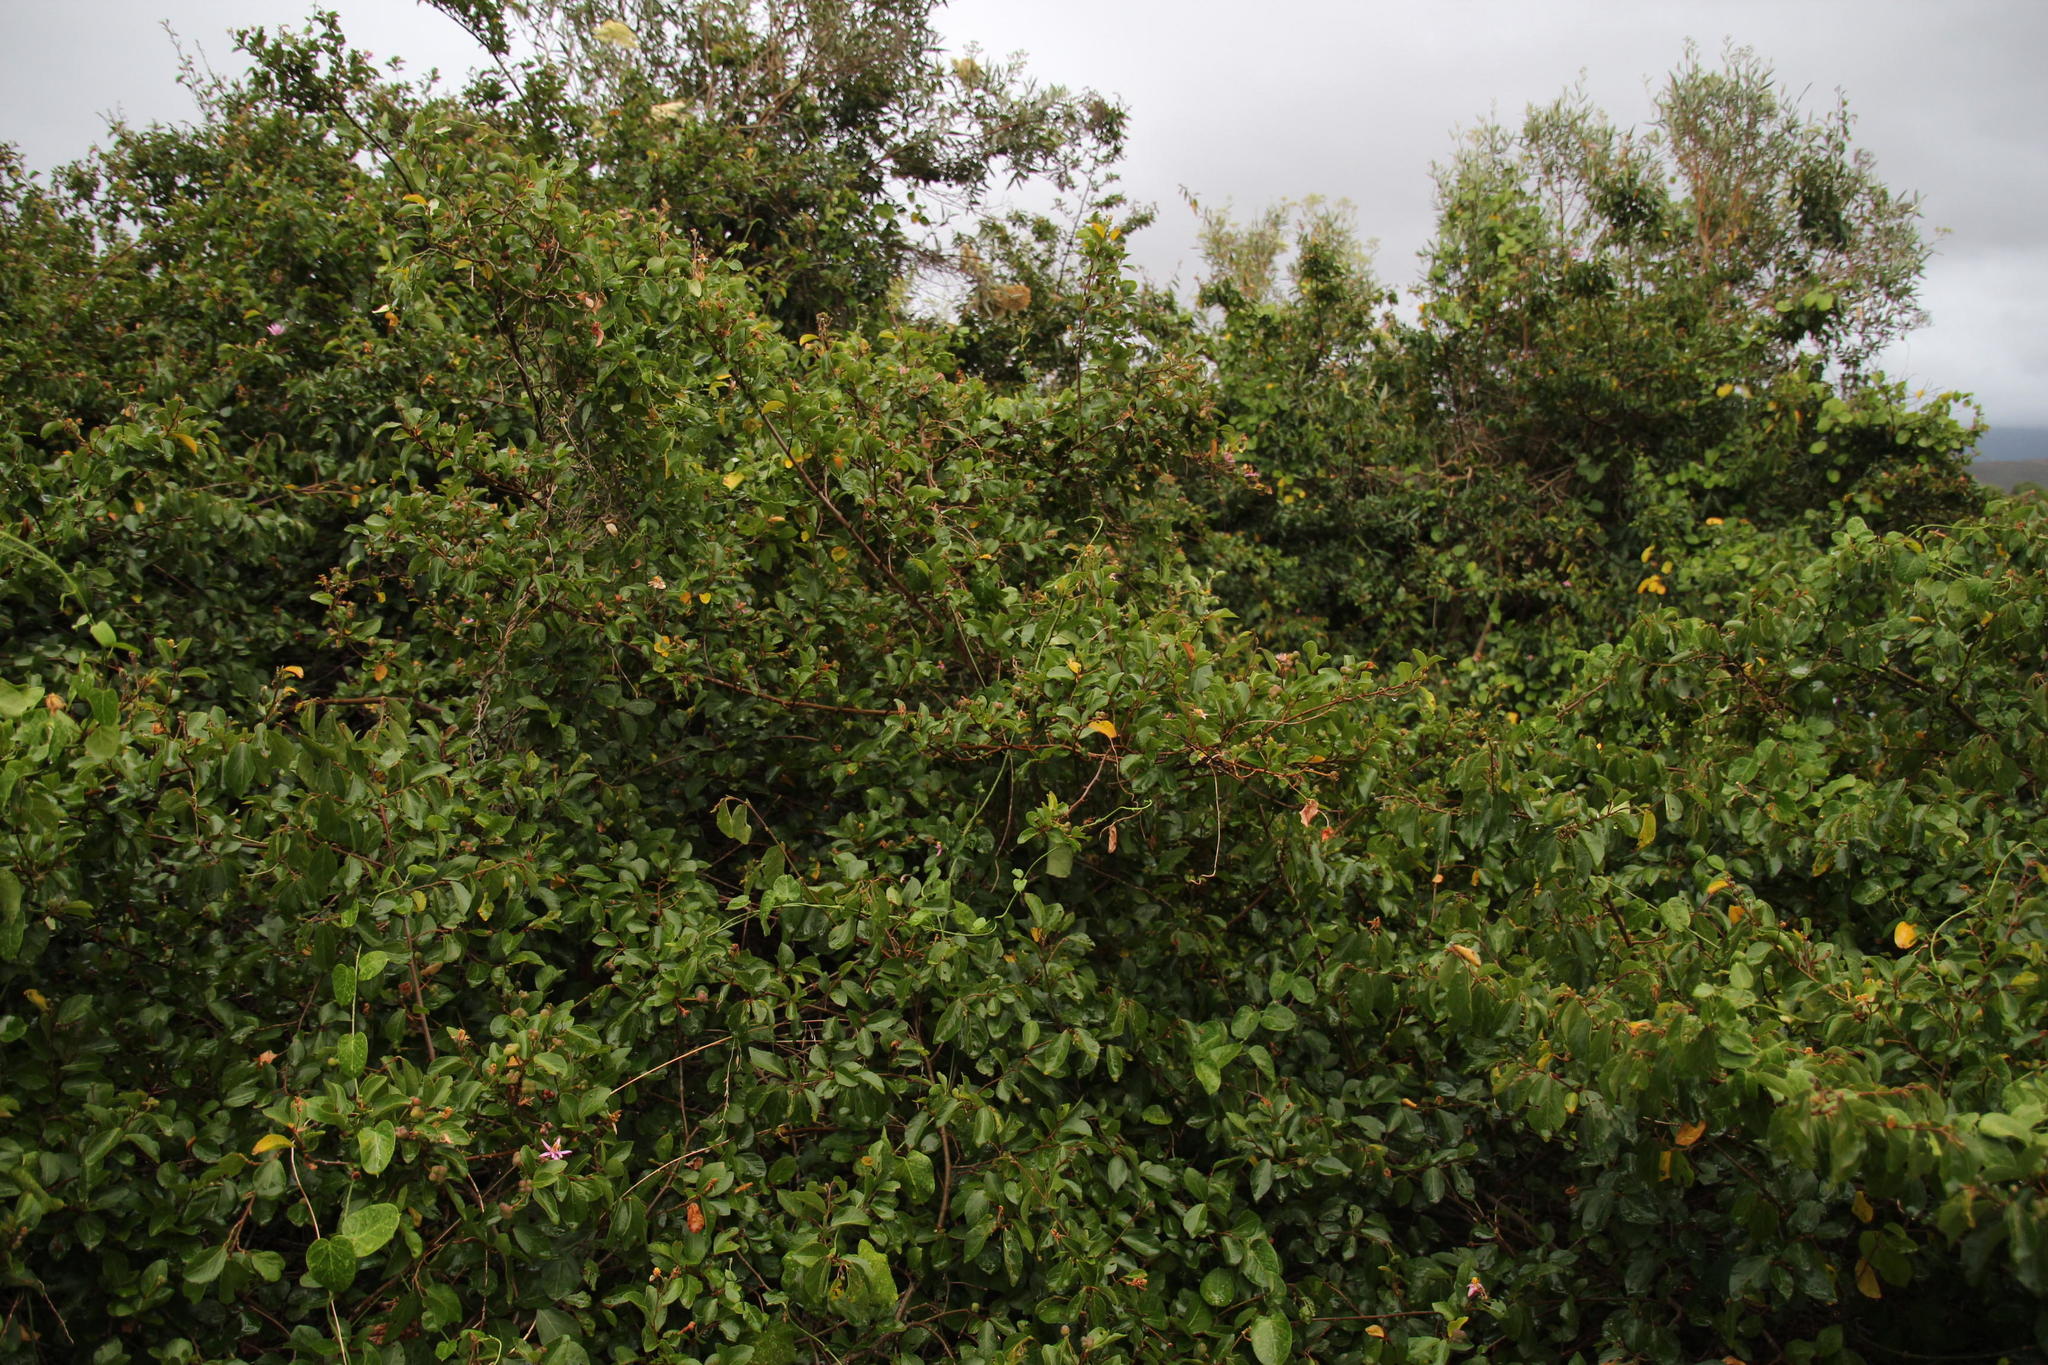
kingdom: Plantae
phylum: Tracheophyta
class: Magnoliopsida
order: Malvales
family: Malvaceae
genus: Grewia
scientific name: Grewia occidentalis
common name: Crossberry
